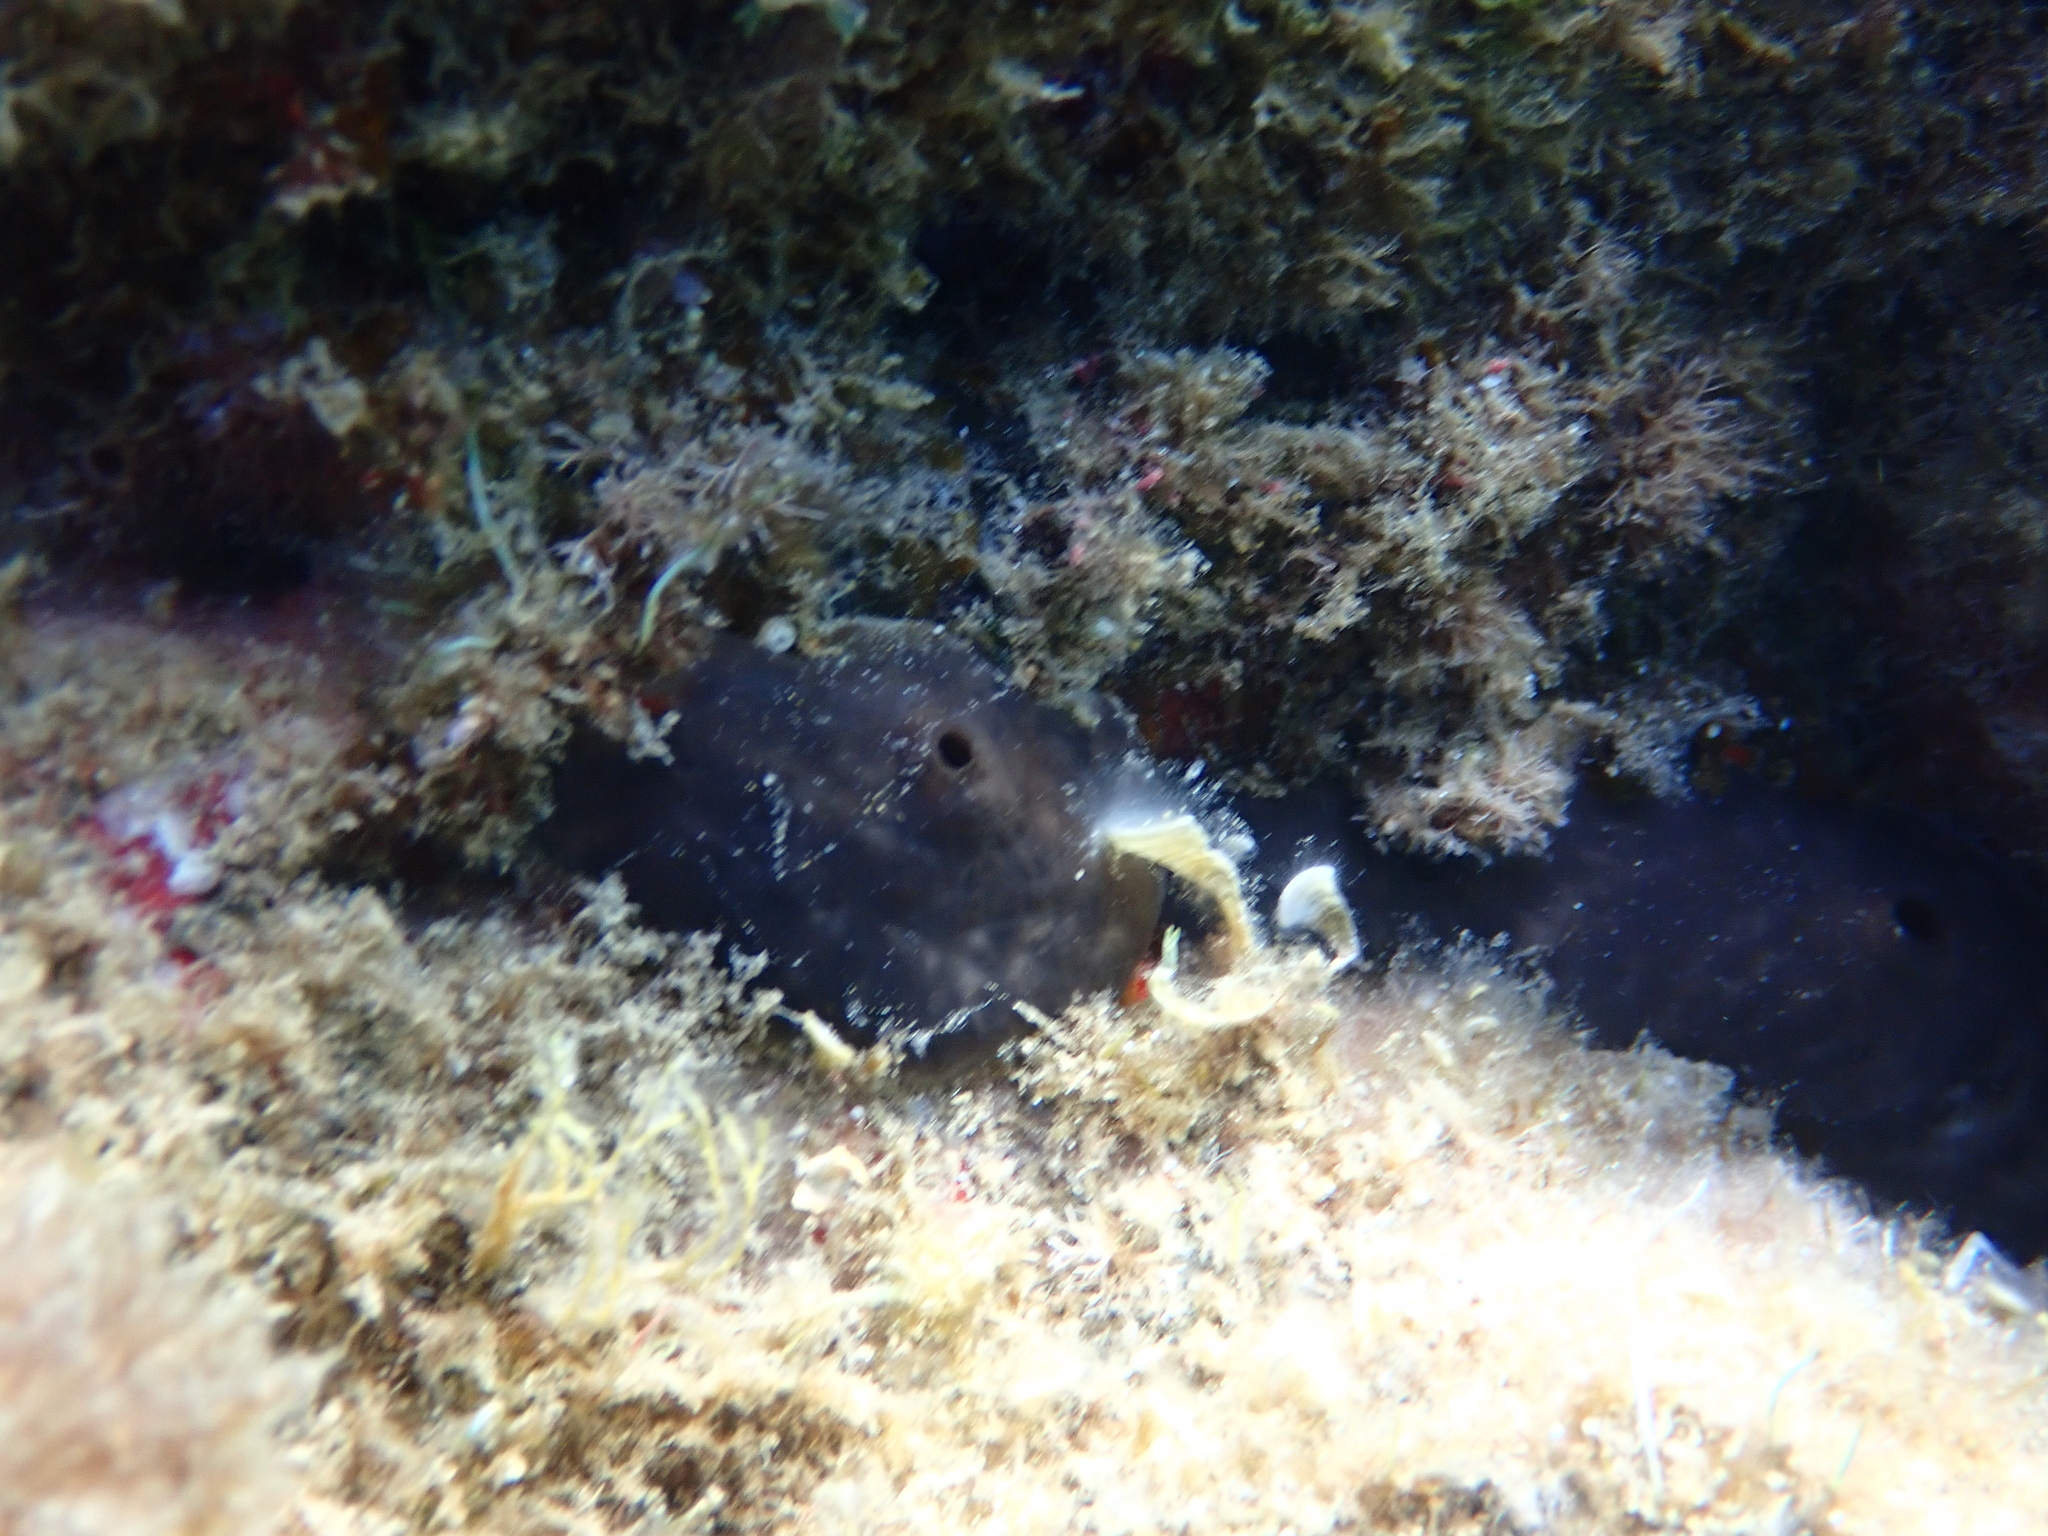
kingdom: Animalia
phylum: Porifera
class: Demospongiae
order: Chondrosiida
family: Chondrosiidae
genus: Chondrosia
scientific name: Chondrosia reniformis
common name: Chicken liver sponge
